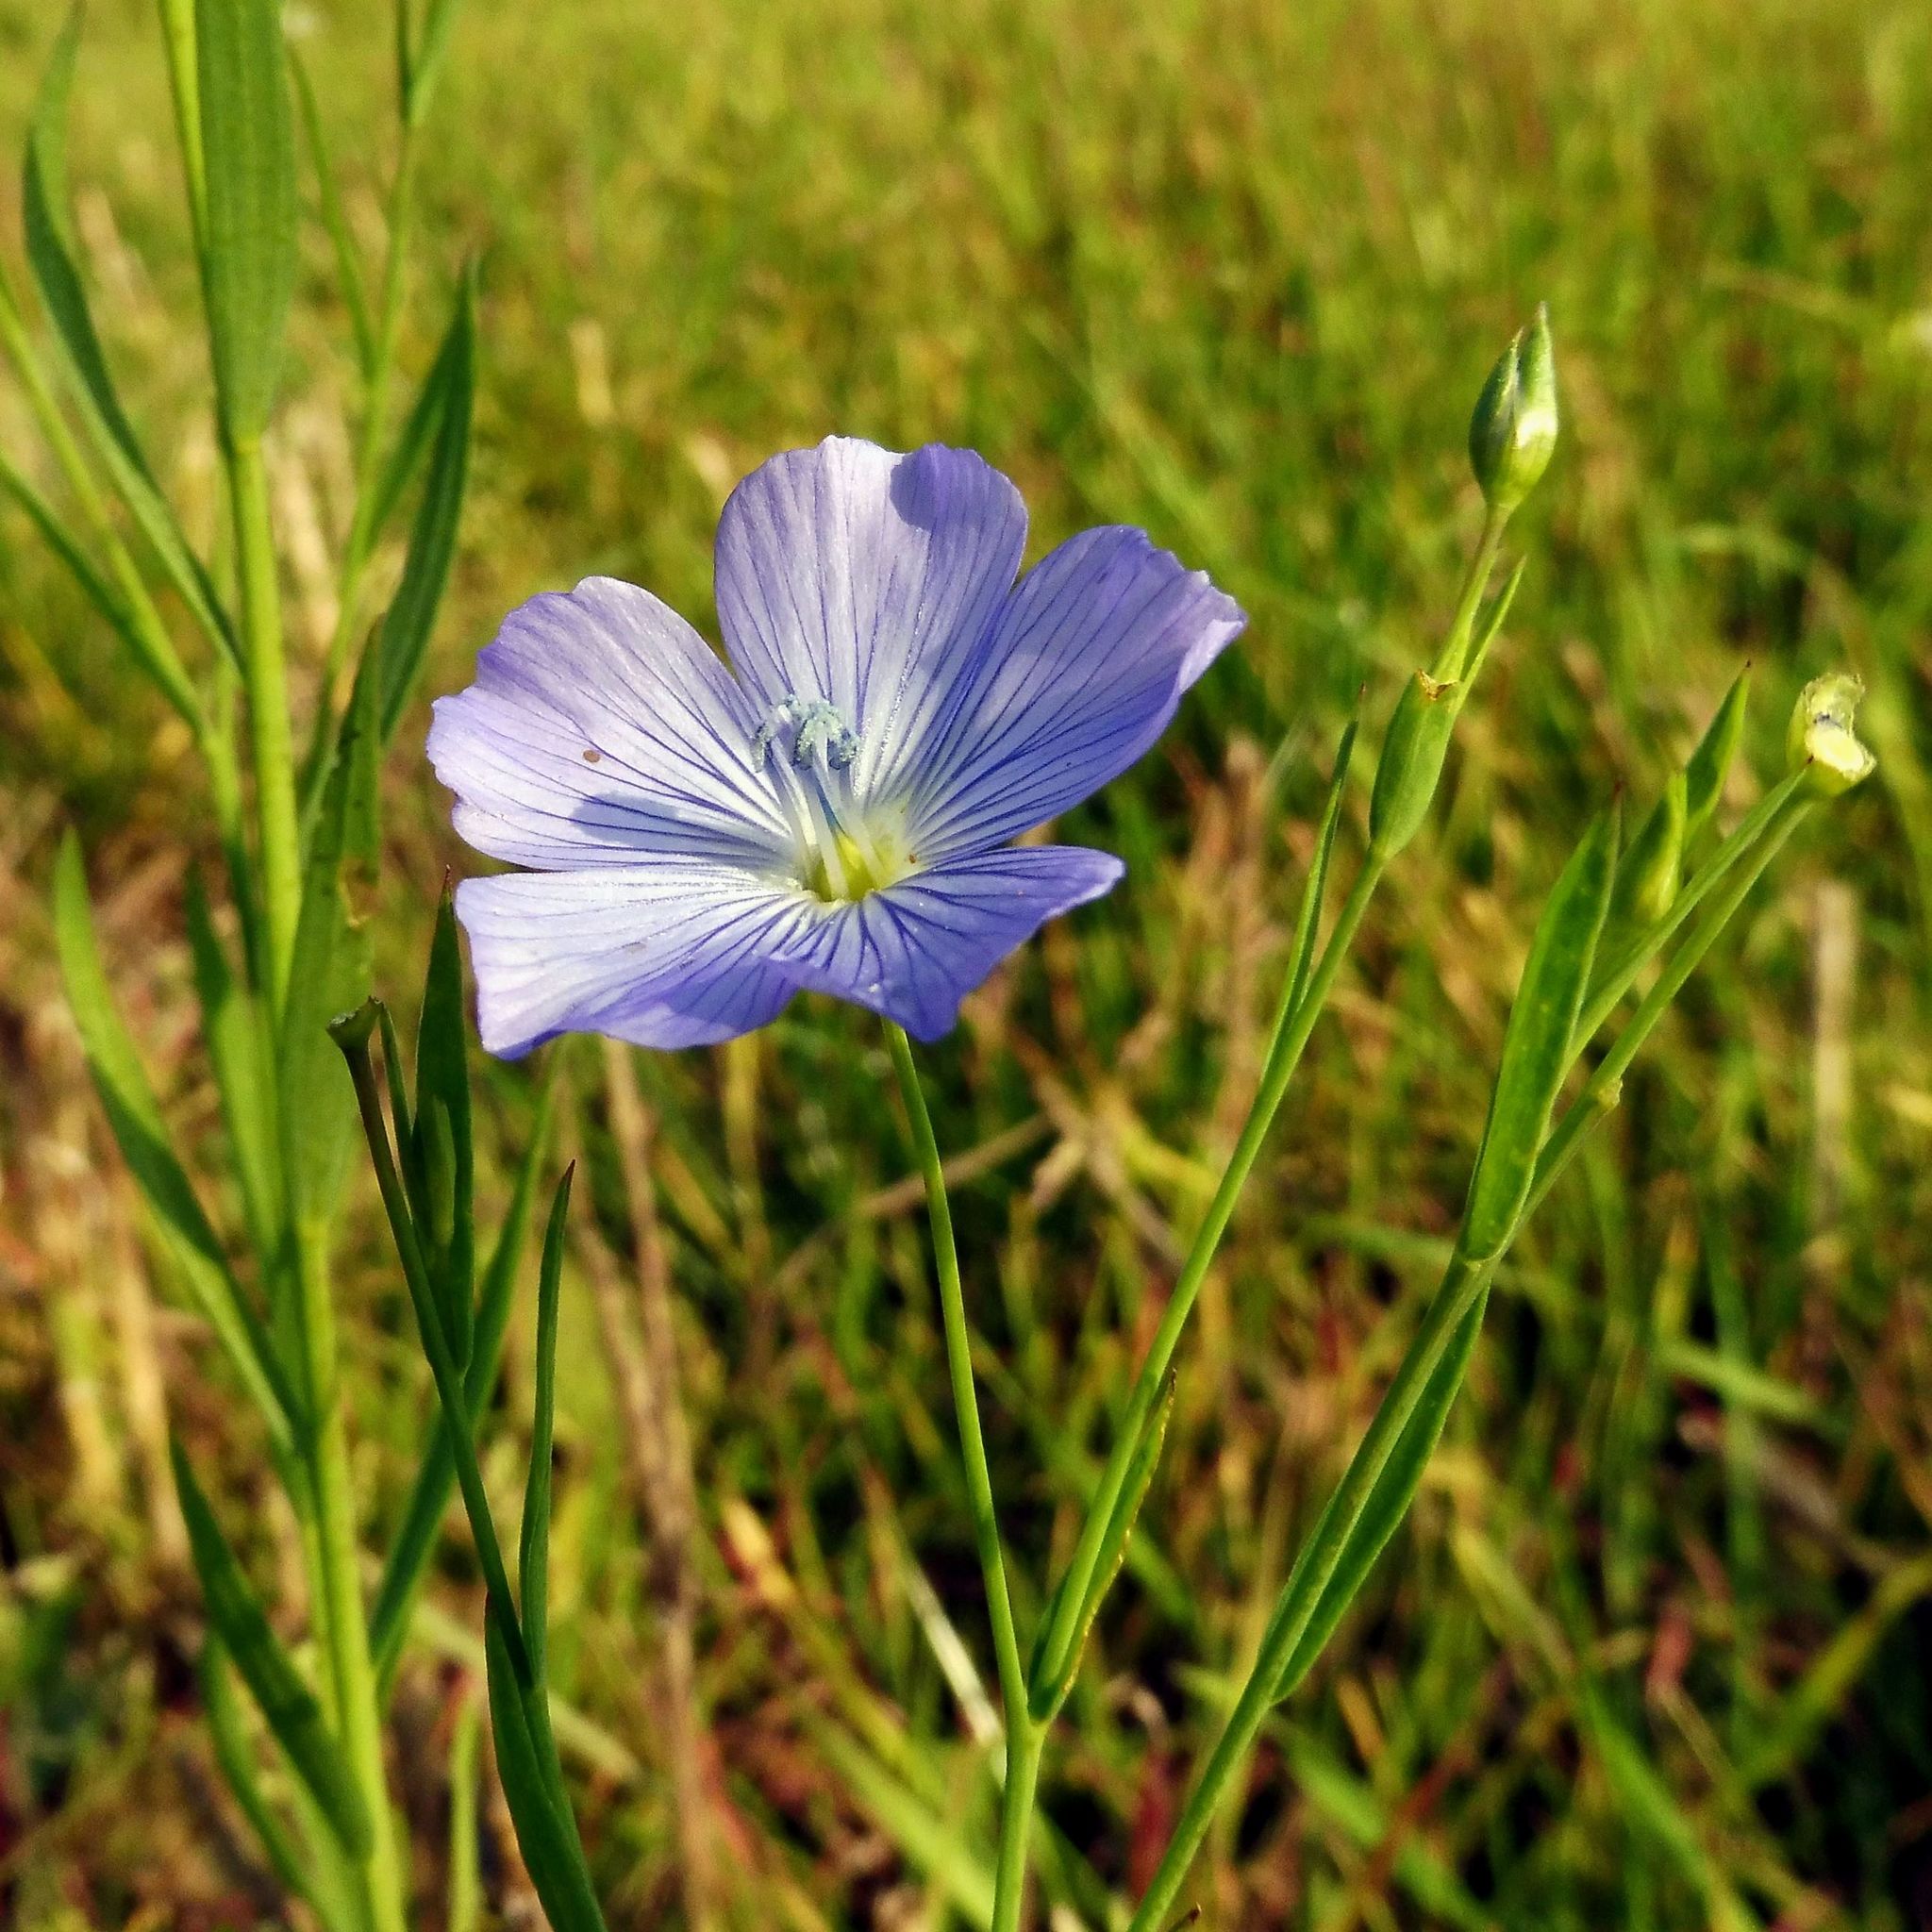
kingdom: Plantae
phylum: Tracheophyta
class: Magnoliopsida
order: Malpighiales
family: Linaceae
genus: Linum
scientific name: Linum usitatissimum
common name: Flax
